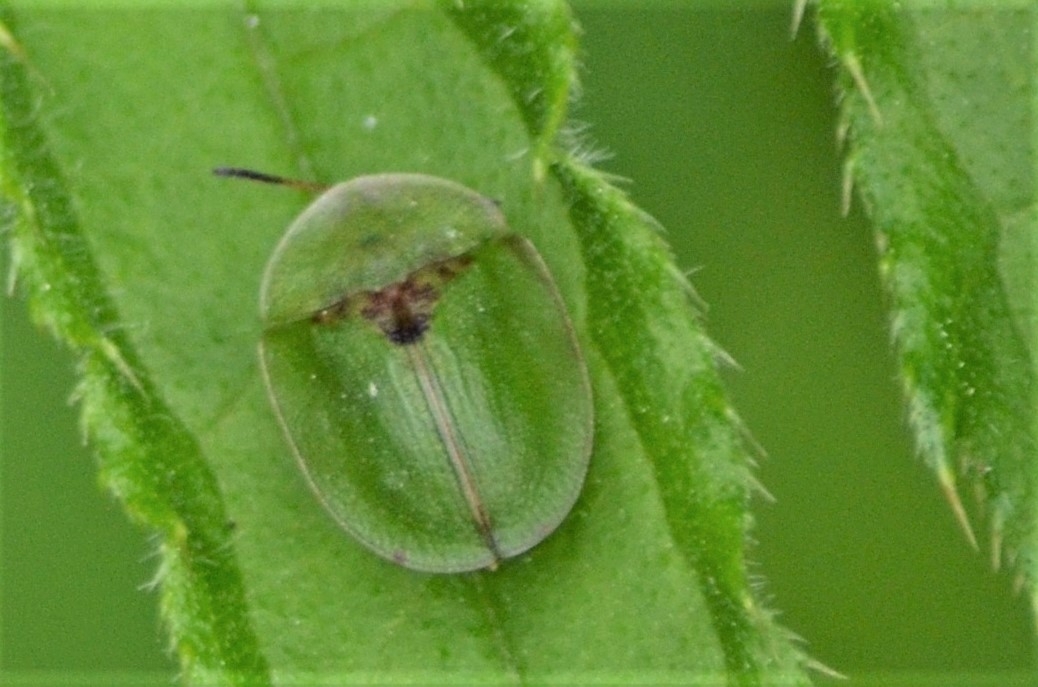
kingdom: Animalia
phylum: Arthropoda
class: Insecta
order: Coleoptera
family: Chrysomelidae
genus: Cassida
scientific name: Cassida rubiginosa
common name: Thistle tortoise beetle
